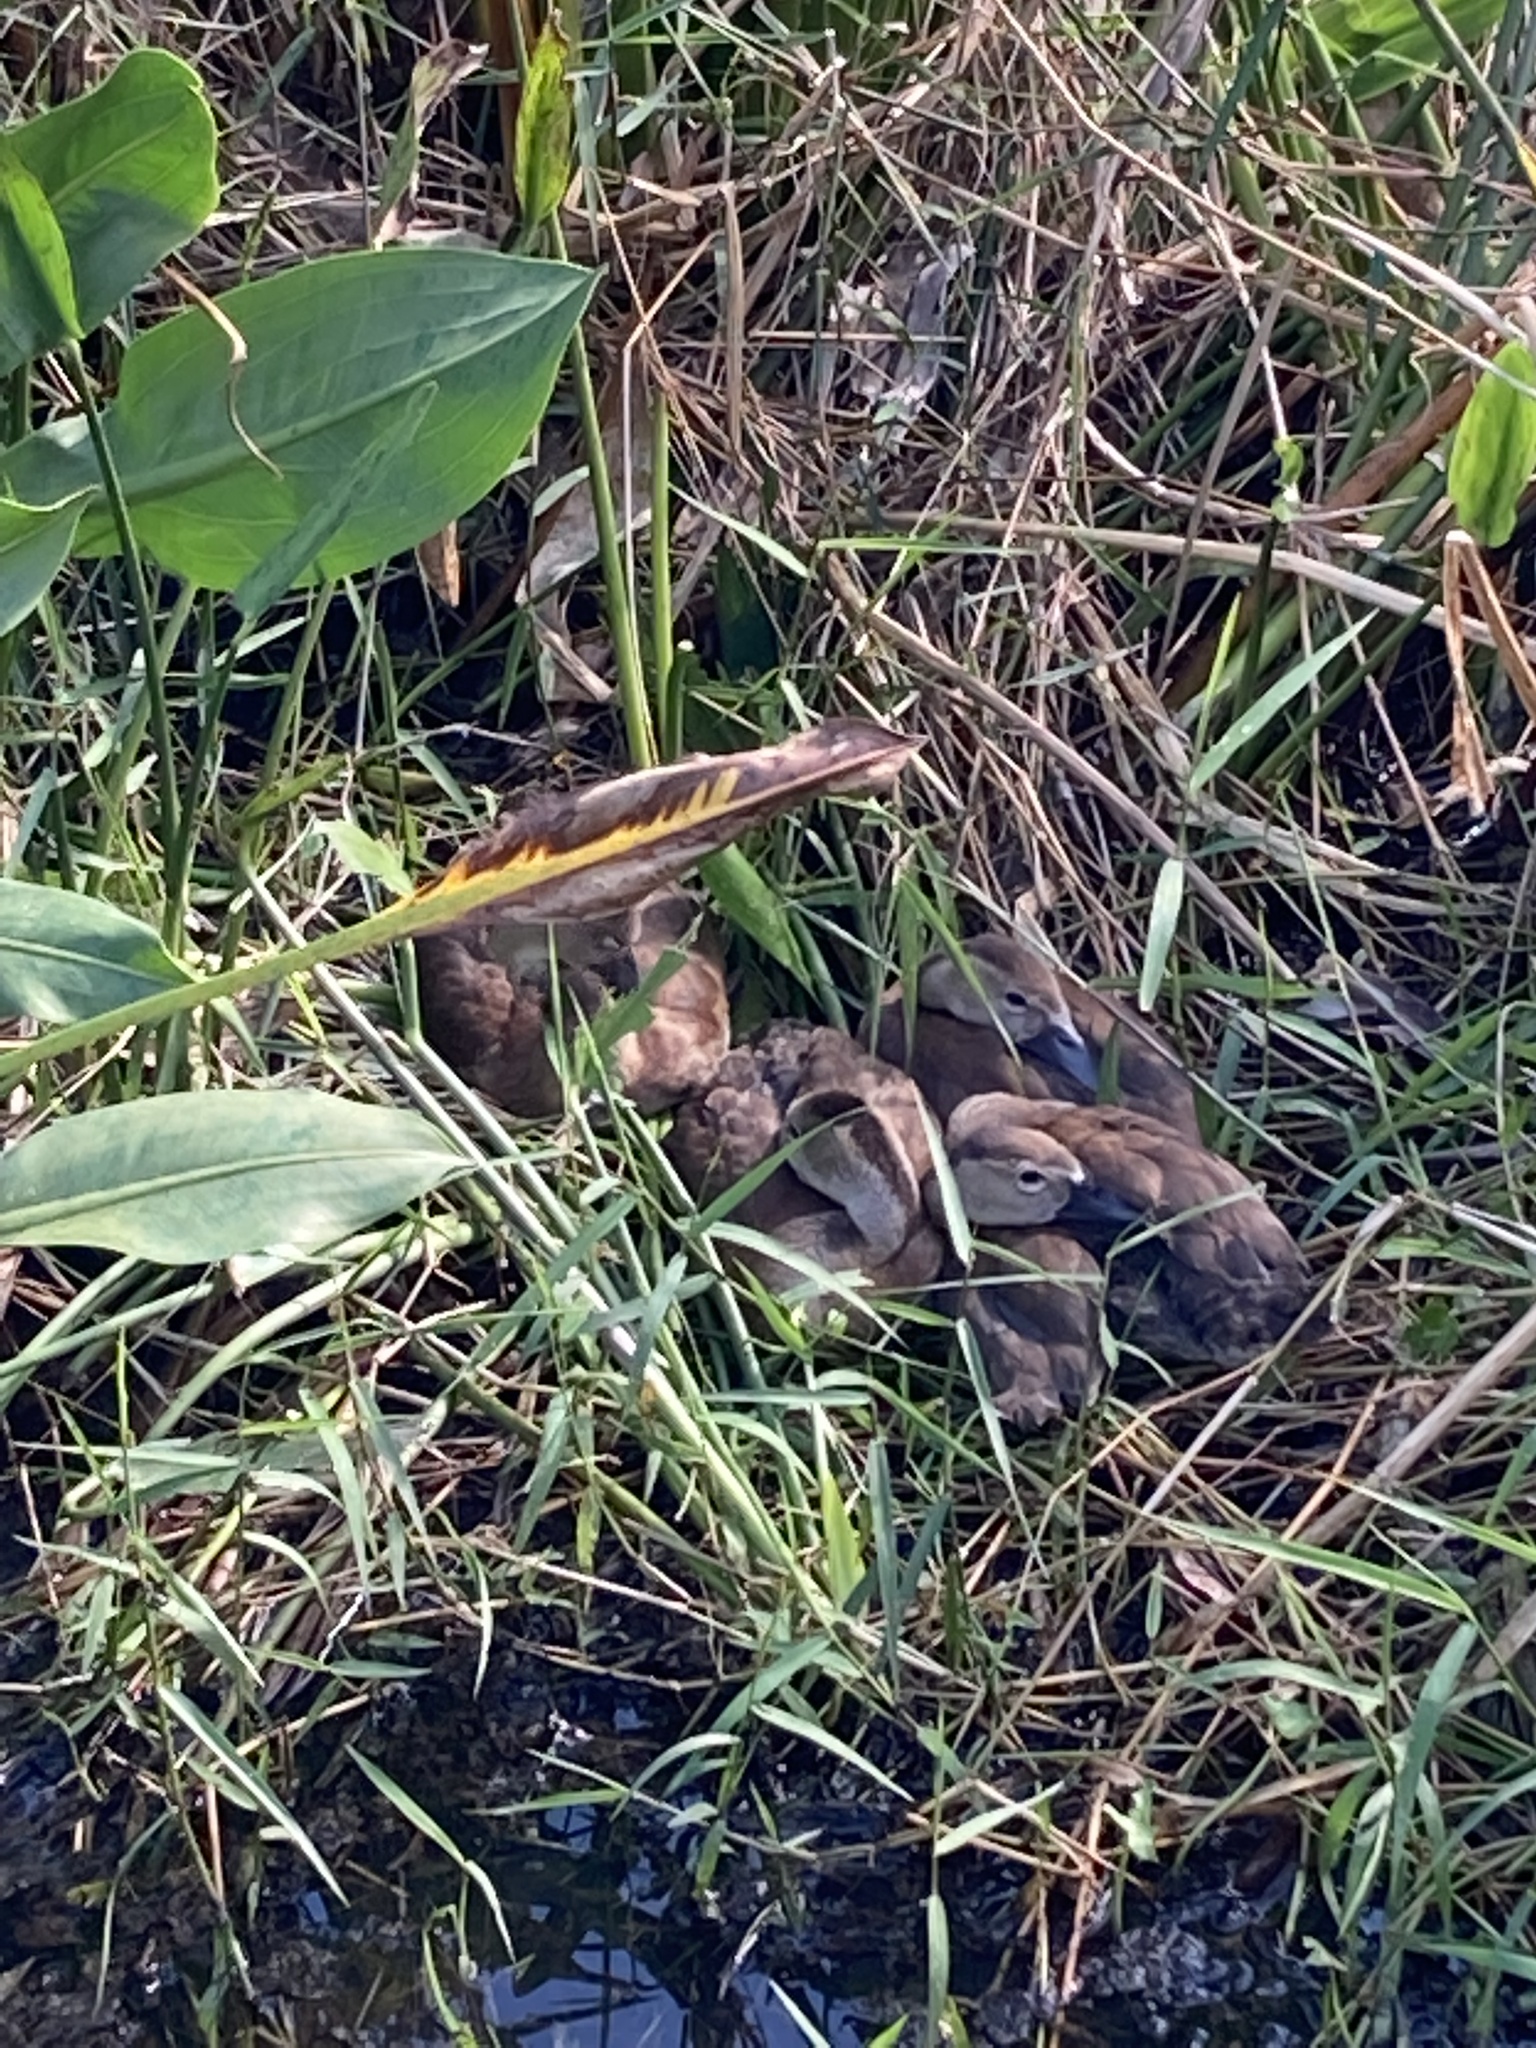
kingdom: Animalia
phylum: Chordata
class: Aves
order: Anseriformes
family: Anatidae
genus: Dendrocygna
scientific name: Dendrocygna autumnalis
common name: Black-bellied whistling duck
